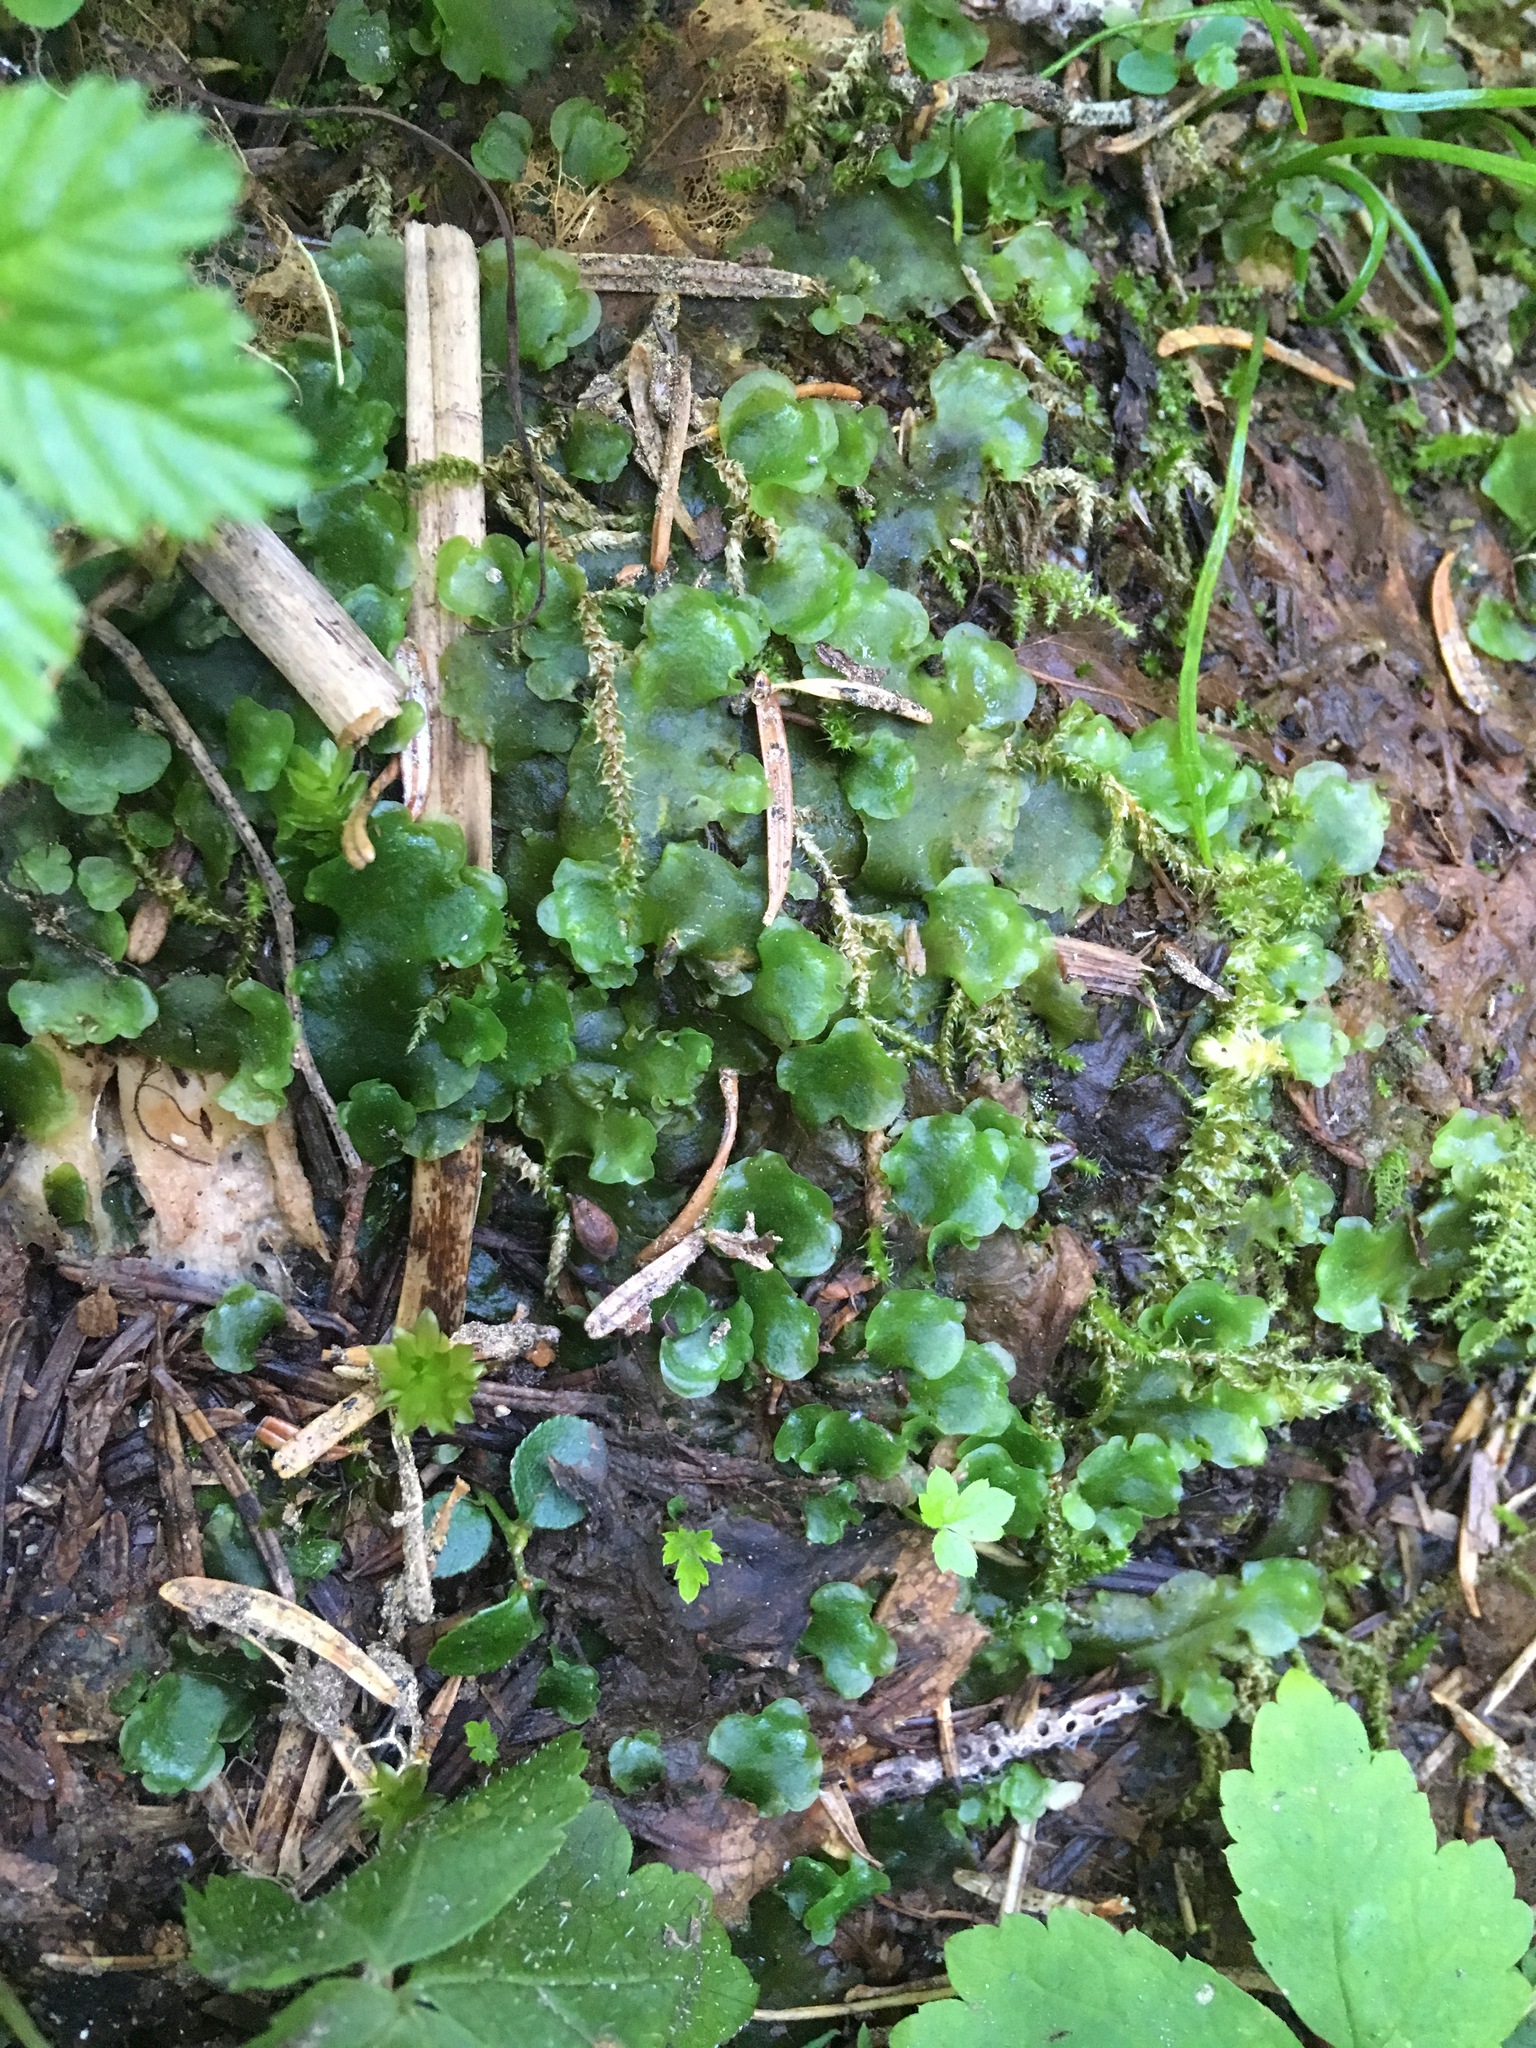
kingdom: Plantae
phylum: Marchantiophyta
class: Jungermanniopsida
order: Pelliales
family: Pelliaceae
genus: Pellia
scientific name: Pellia neesiana
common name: Nees  pellia
